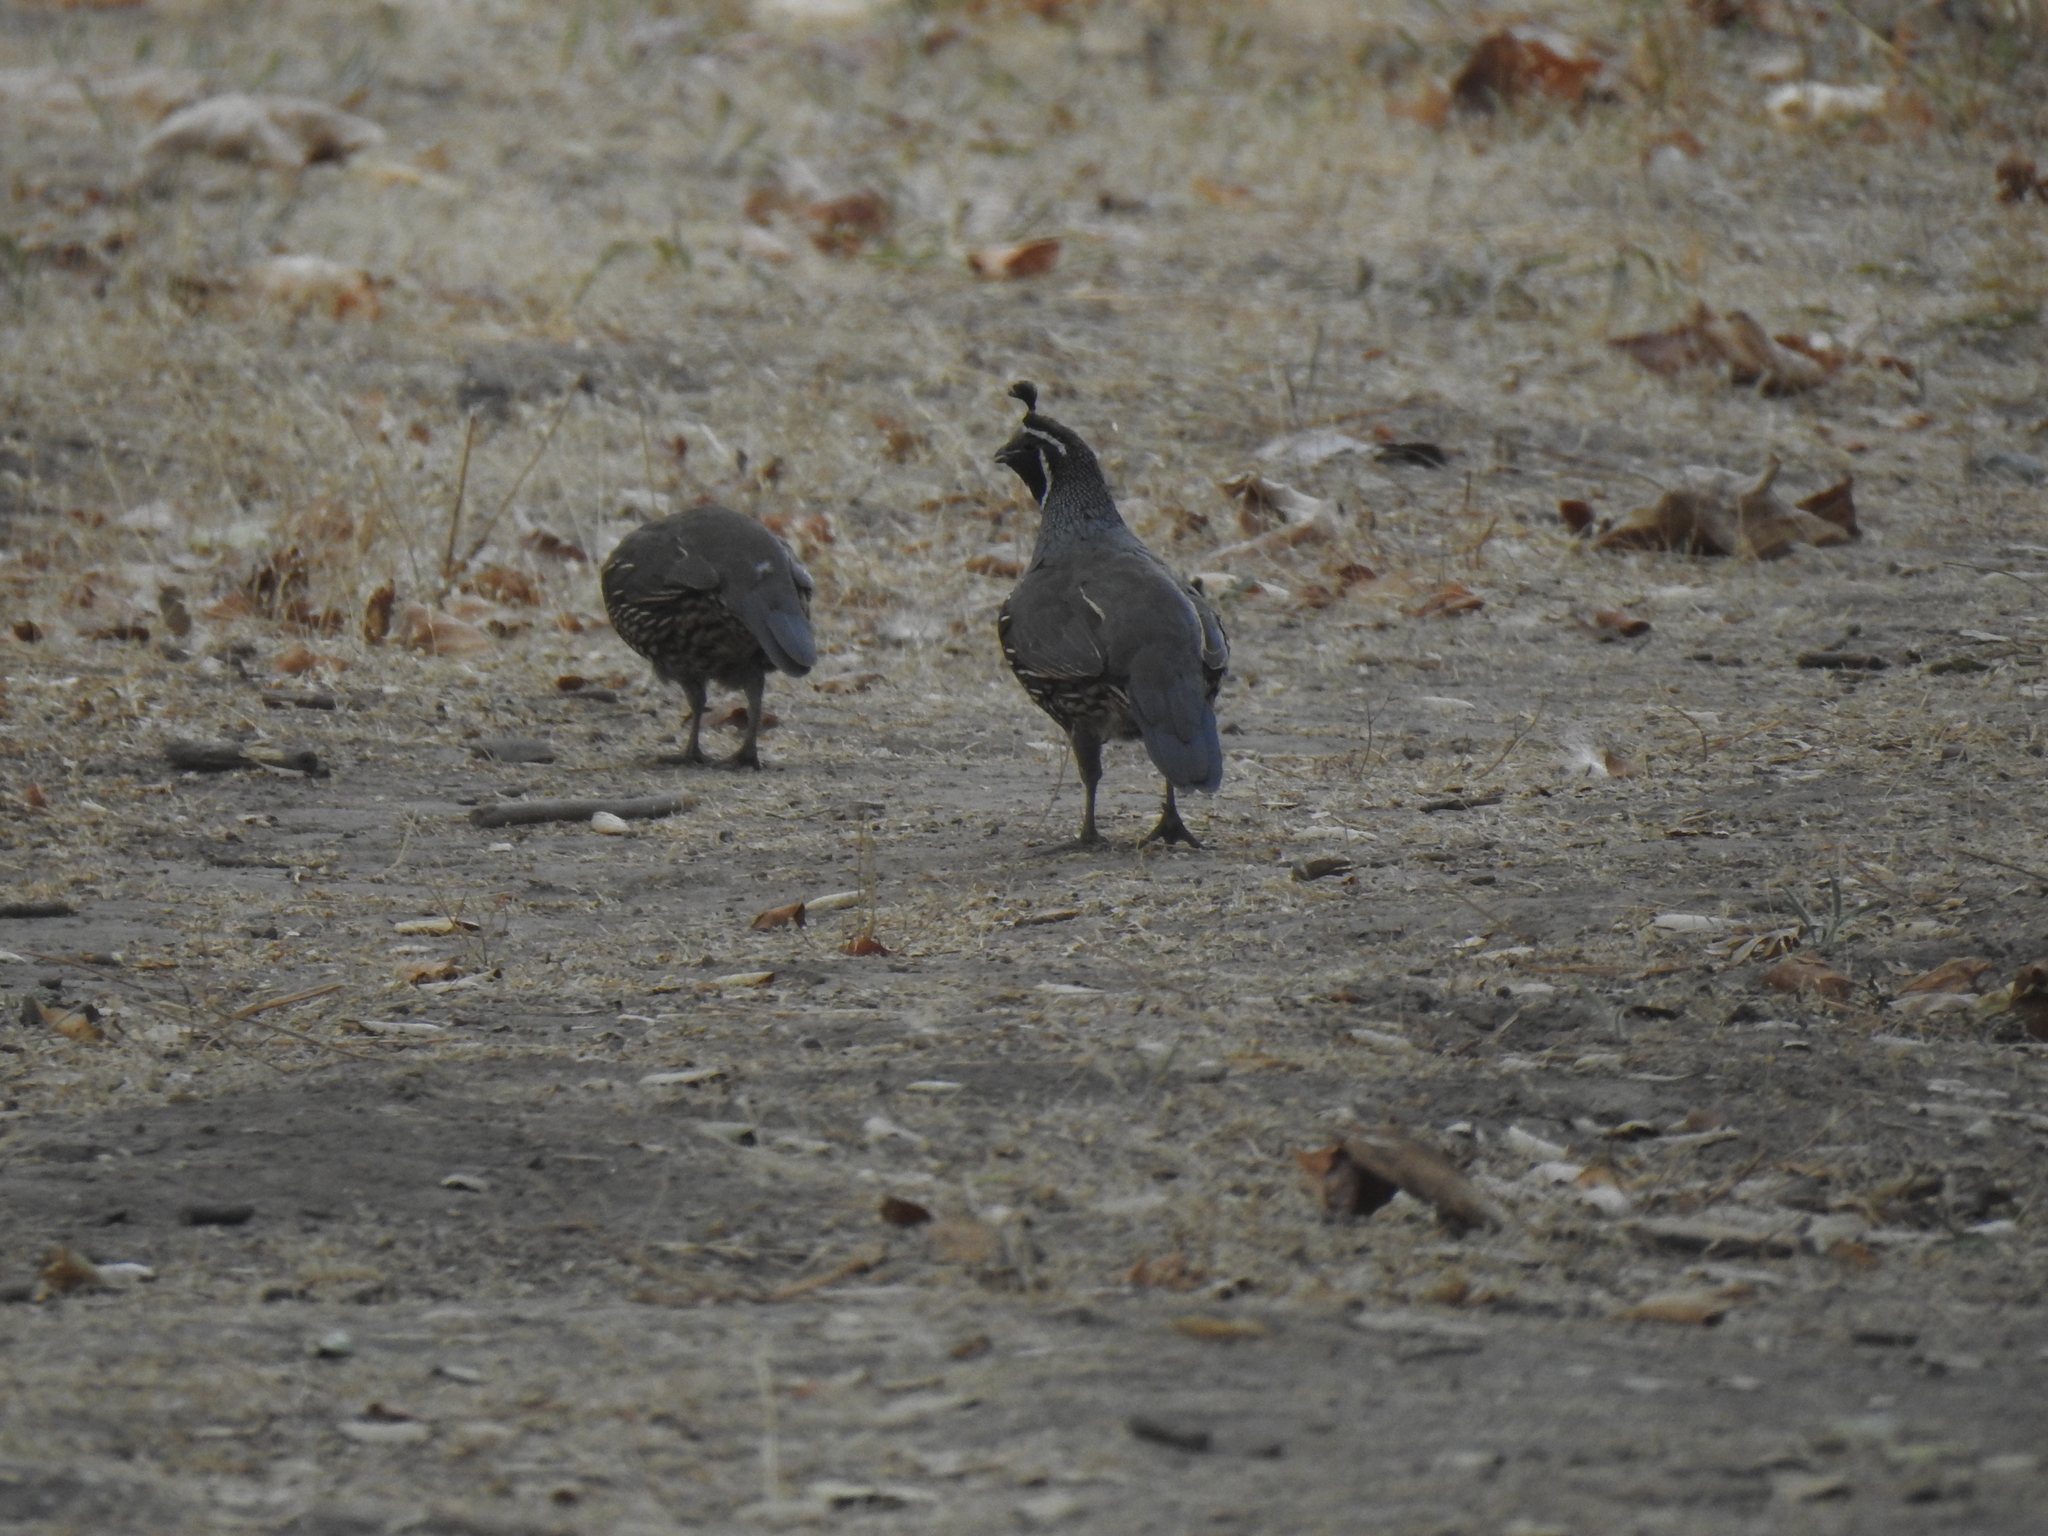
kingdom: Animalia
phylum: Chordata
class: Aves
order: Galliformes
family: Odontophoridae
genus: Callipepla
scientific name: Callipepla californica
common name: California quail
